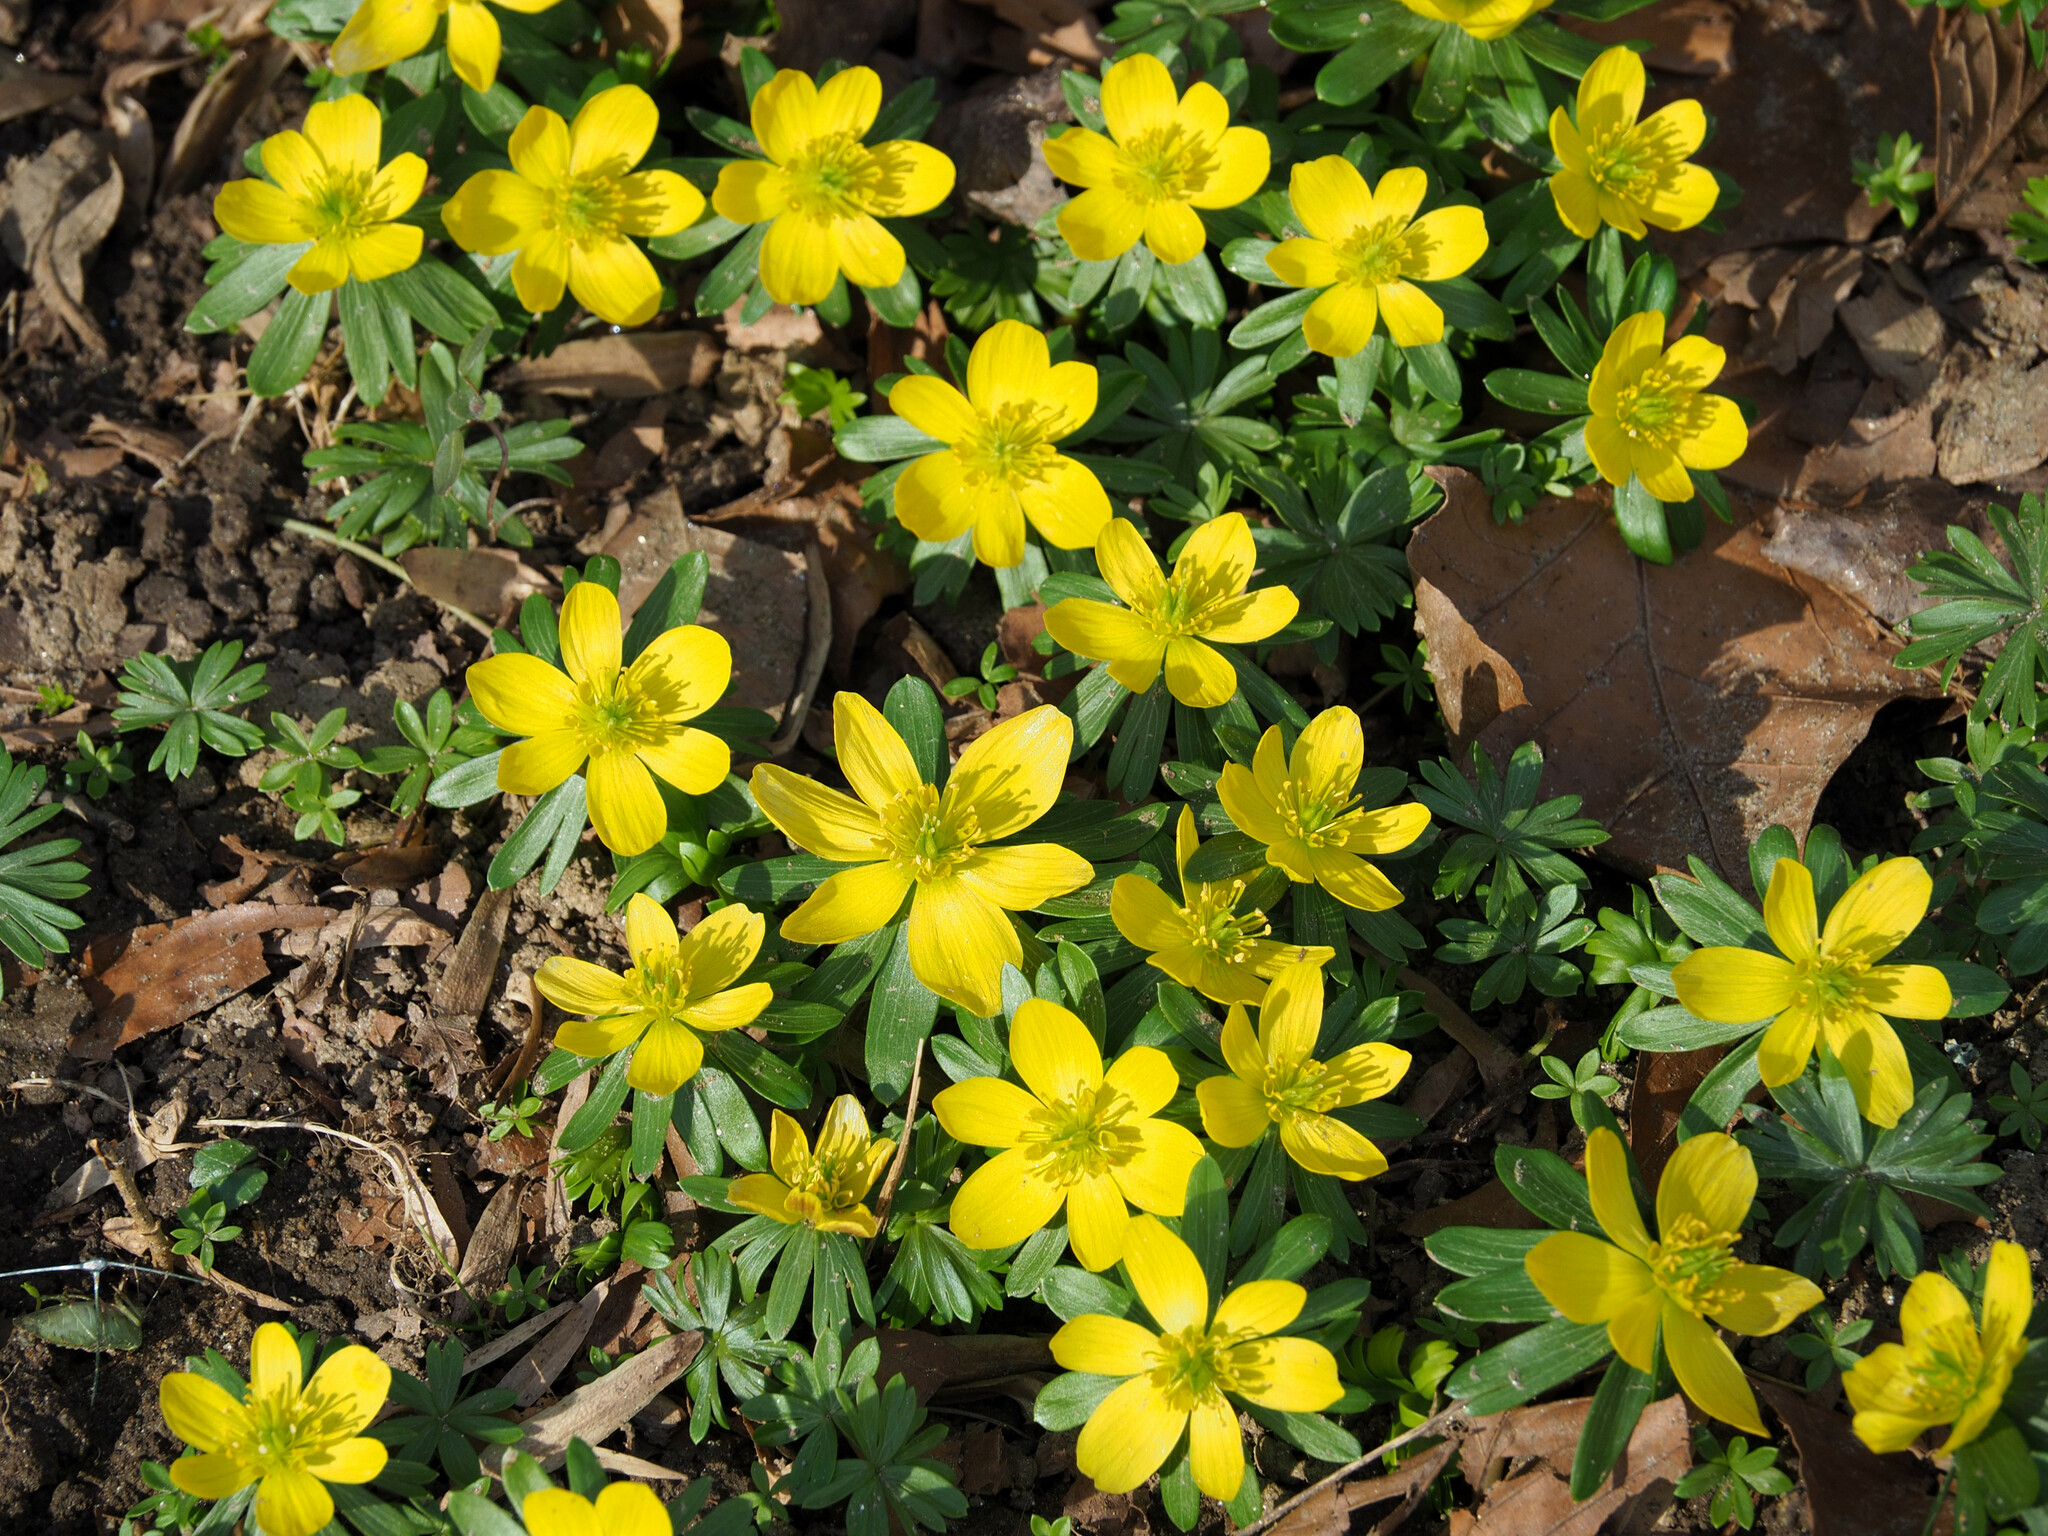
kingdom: Plantae
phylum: Tracheophyta
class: Magnoliopsida
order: Ranunculales
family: Ranunculaceae
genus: Eranthis
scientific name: Eranthis hyemalis
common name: Winter aconite
